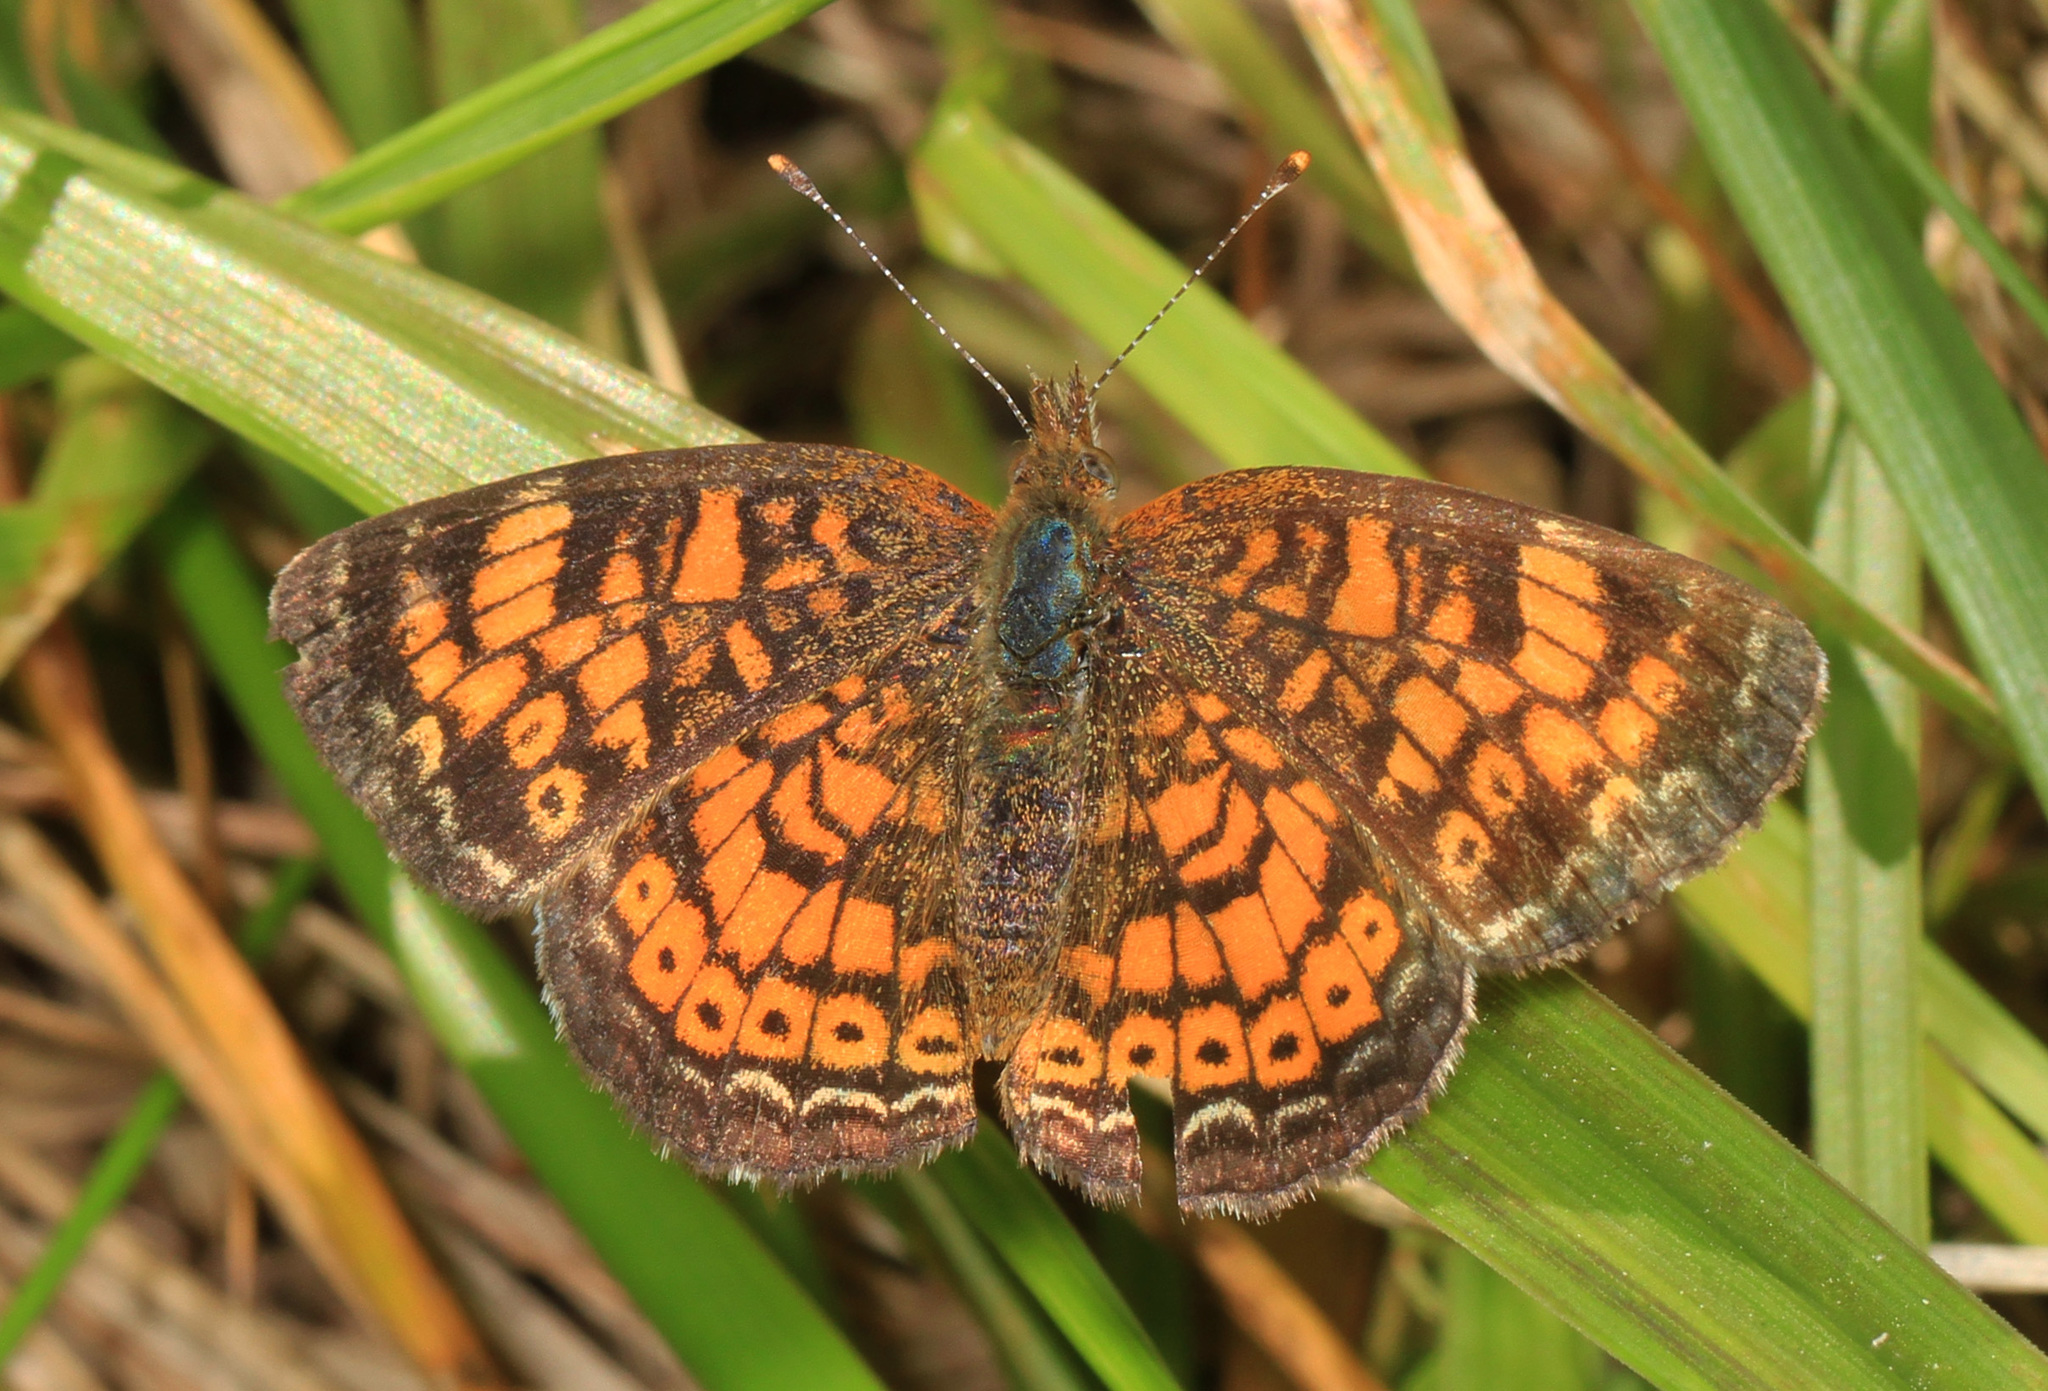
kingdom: Animalia
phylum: Arthropoda
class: Insecta
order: Lepidoptera
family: Nymphalidae
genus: Phyciodes
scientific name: Phyciodes tharos
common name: Pearl crescent
